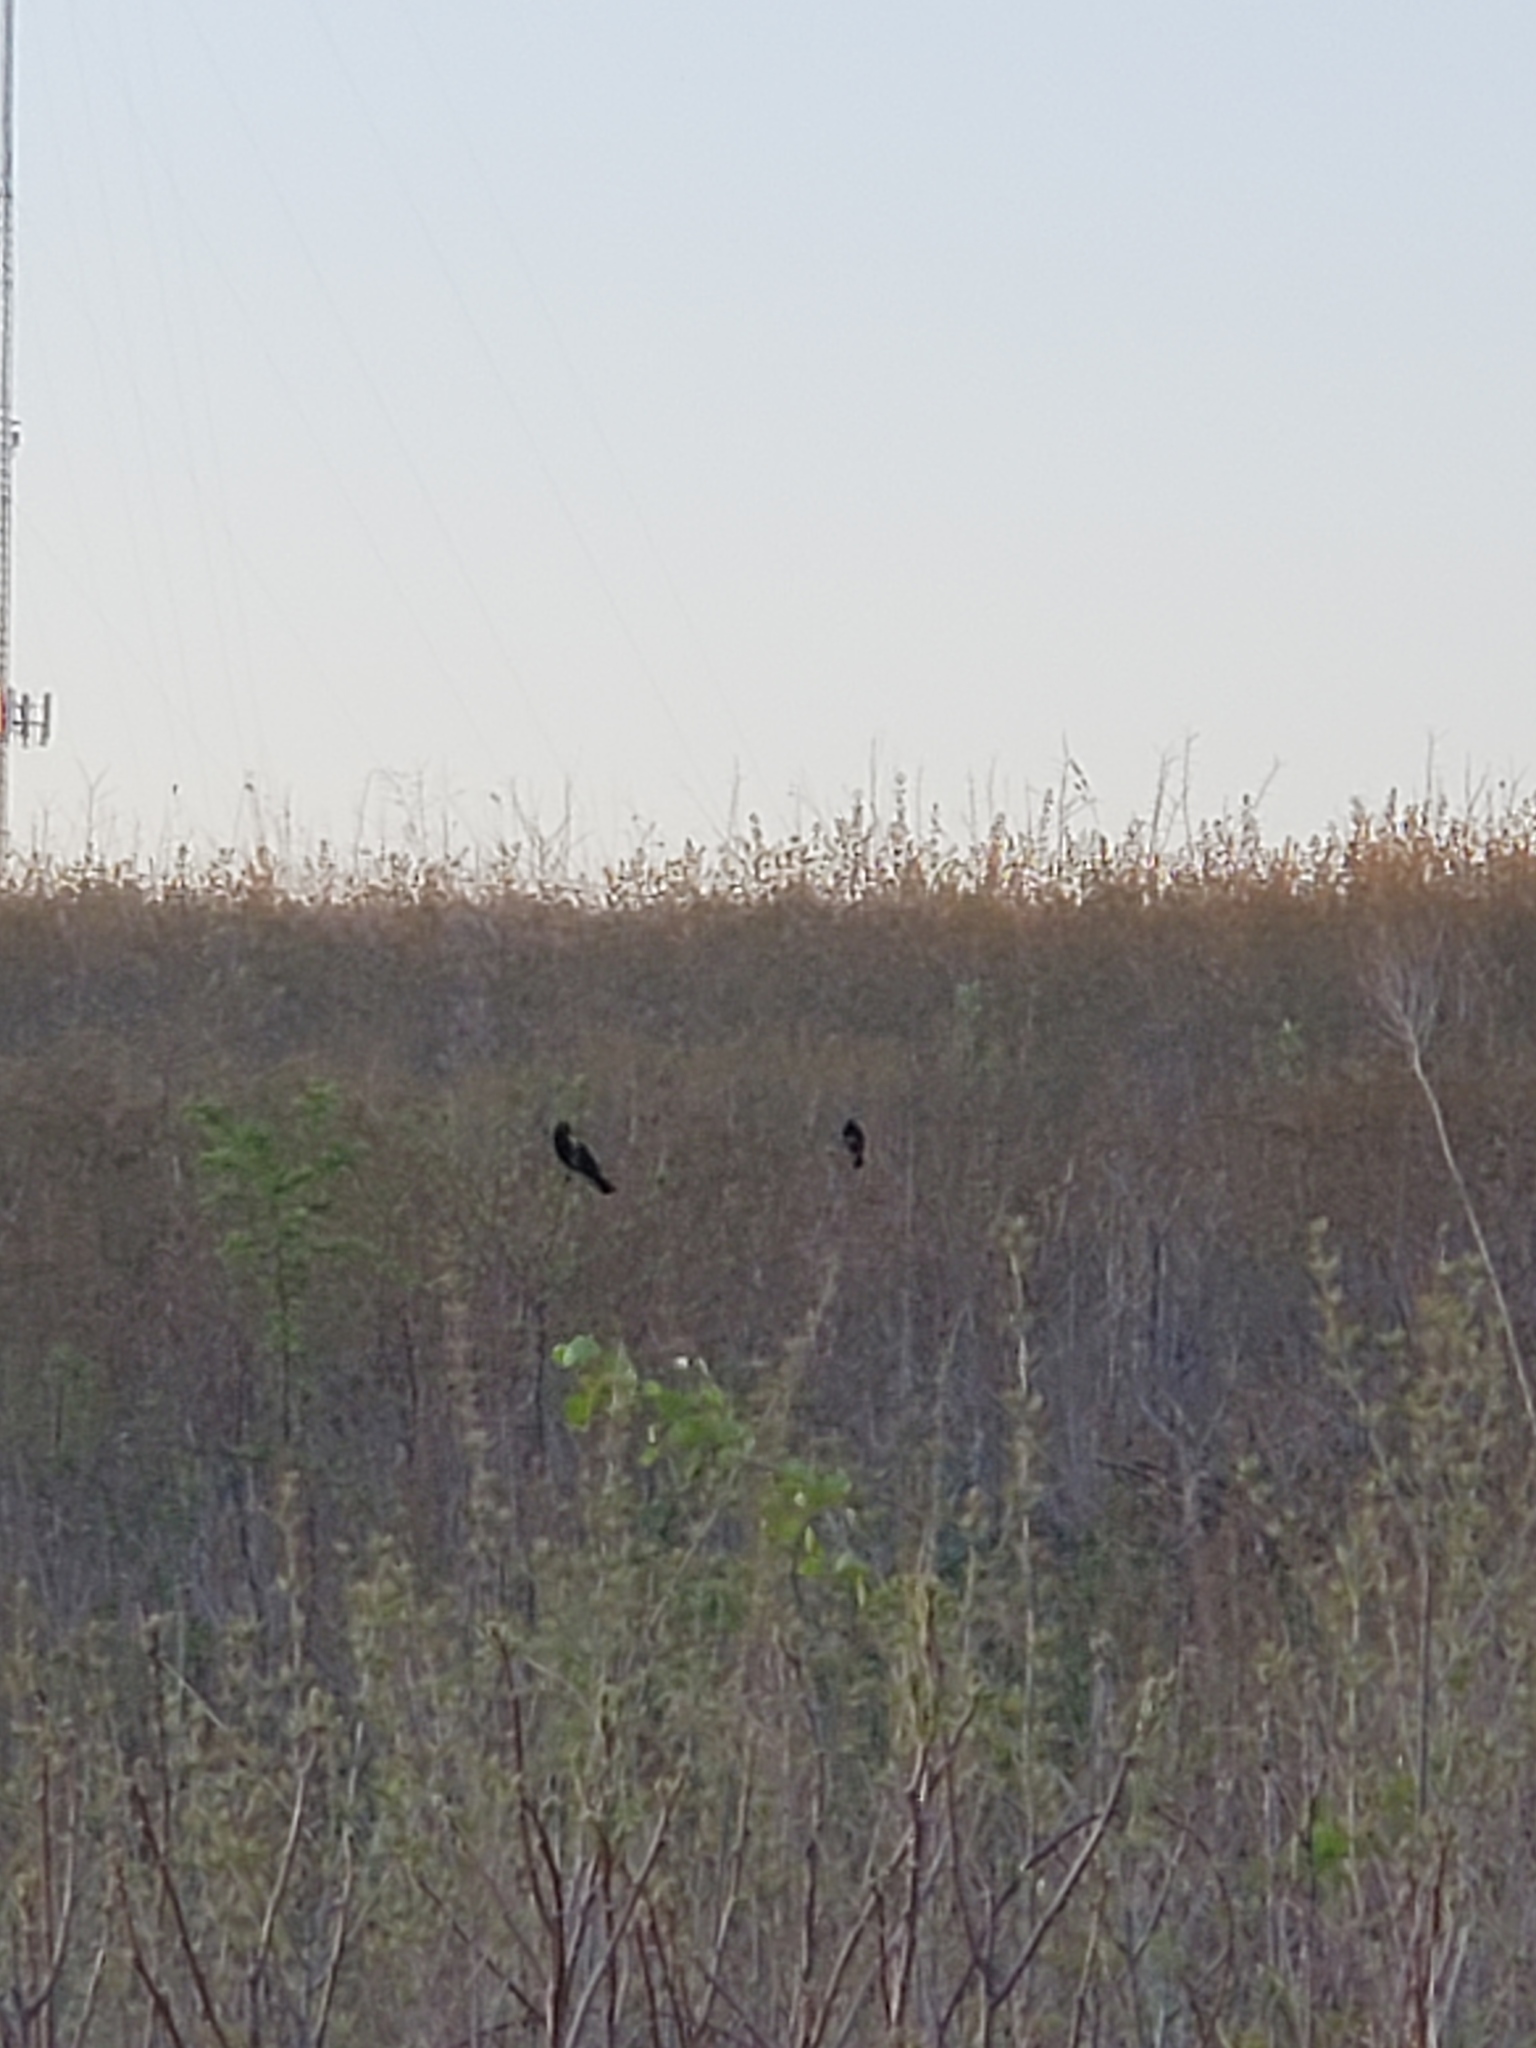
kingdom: Animalia
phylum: Chordata
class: Aves
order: Passeriformes
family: Icteridae
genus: Agelaius
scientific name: Agelaius phoeniceus
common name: Red-winged blackbird
